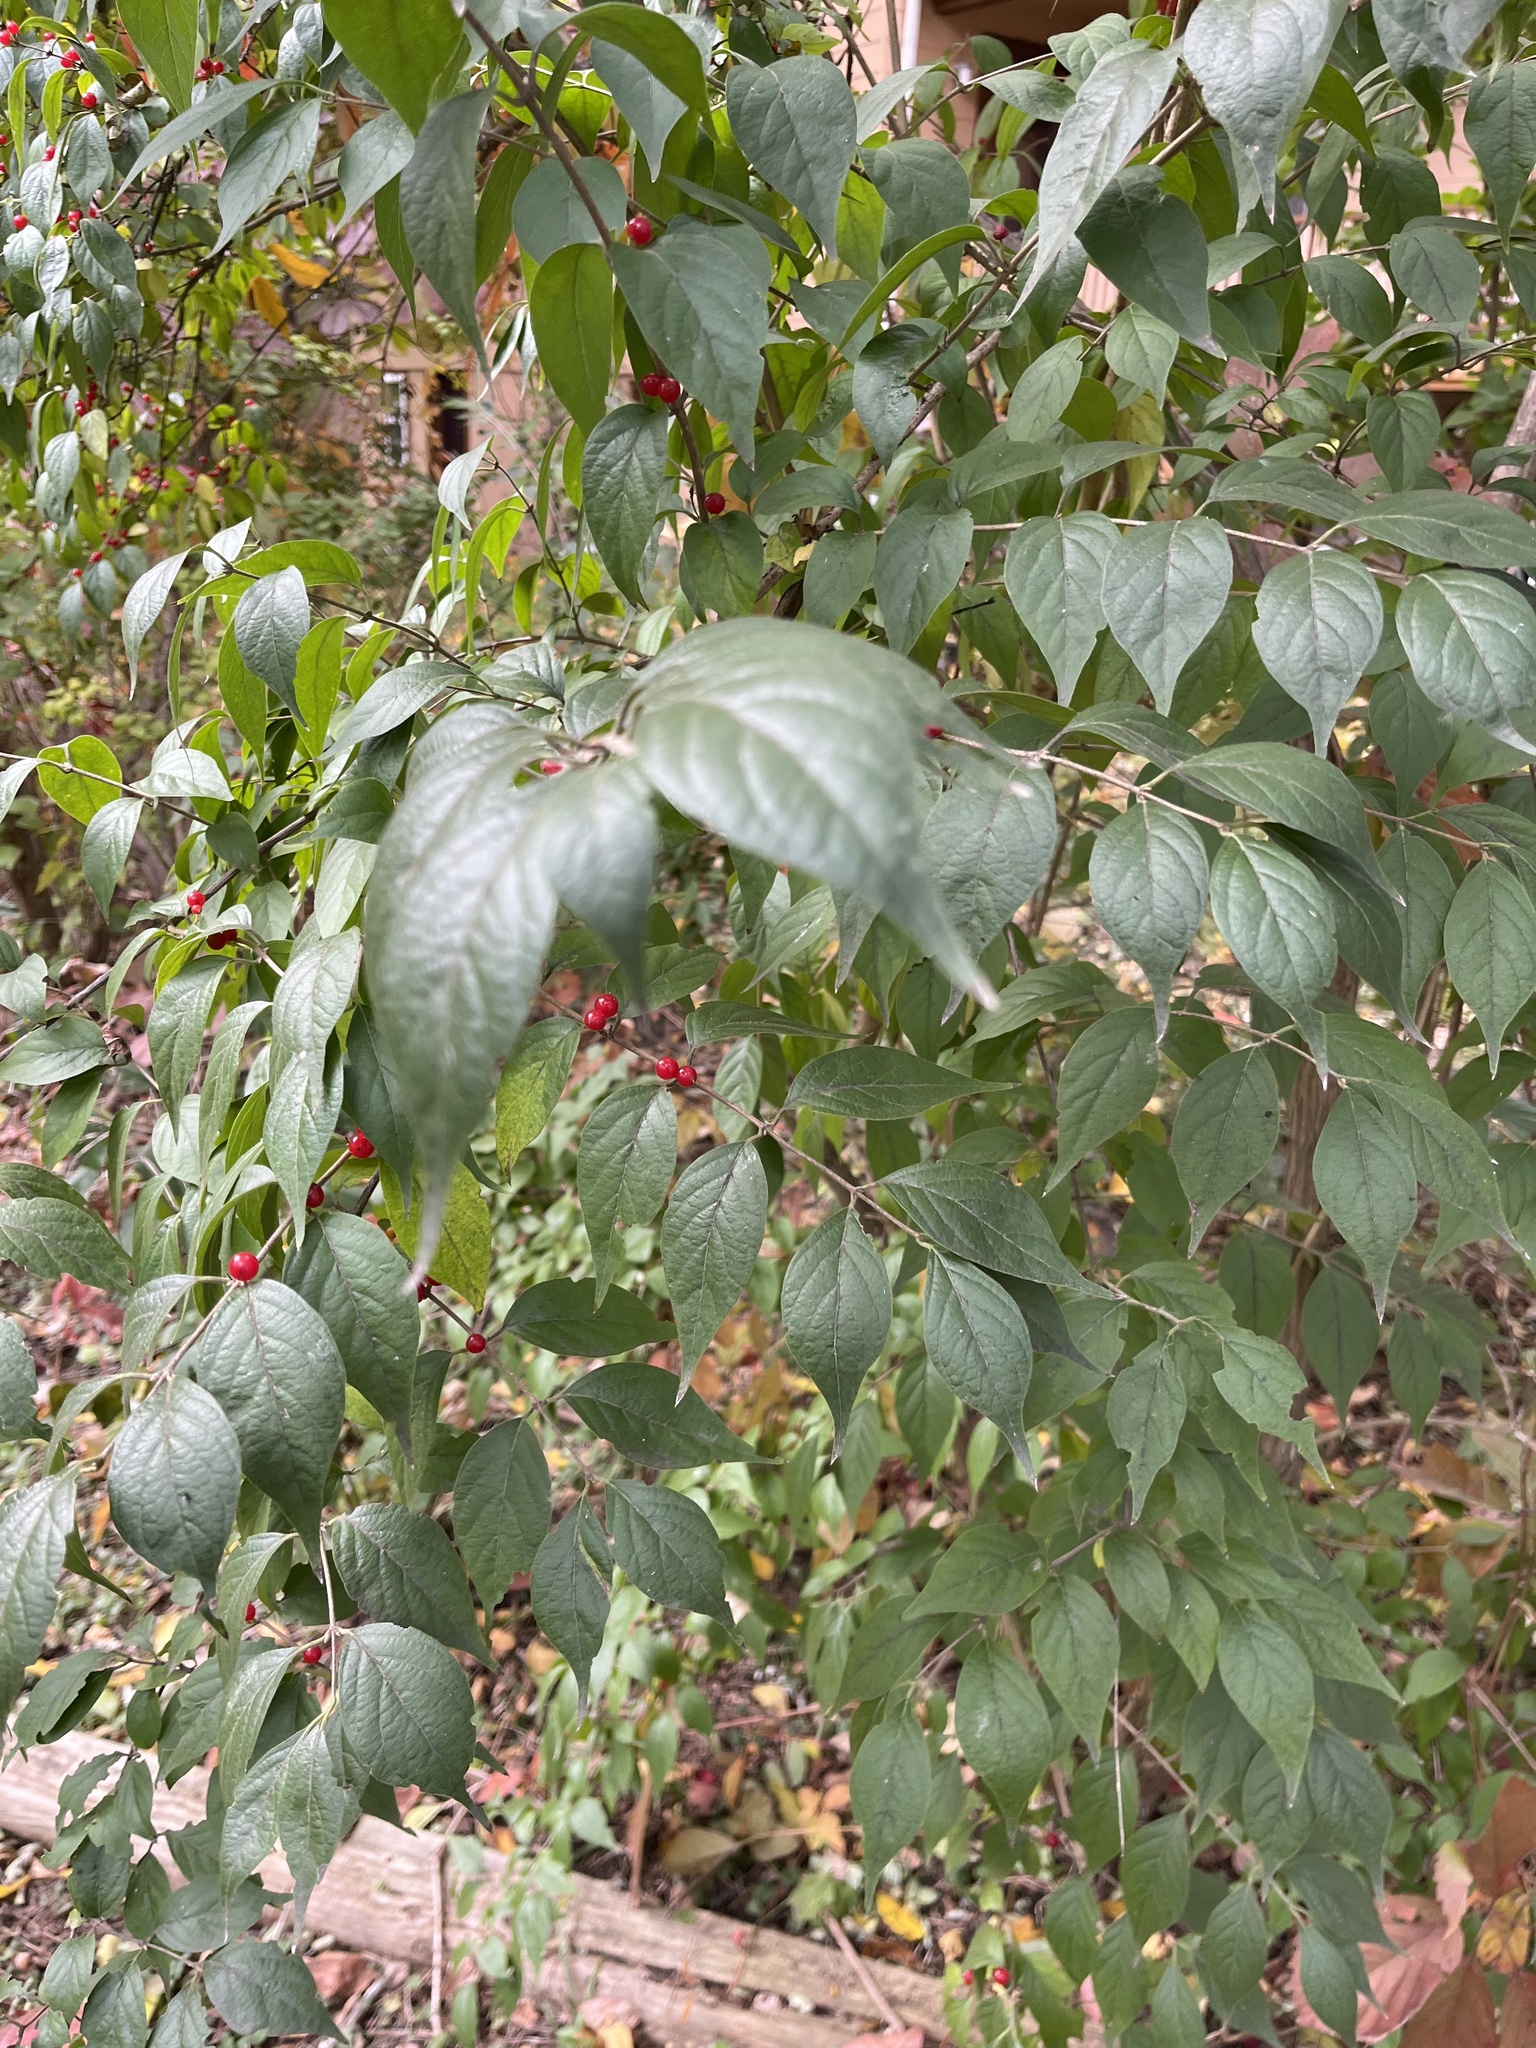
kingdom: Plantae
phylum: Tracheophyta
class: Magnoliopsida
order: Dipsacales
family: Caprifoliaceae
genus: Lonicera
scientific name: Lonicera maackii
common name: Amur honeysuckle
